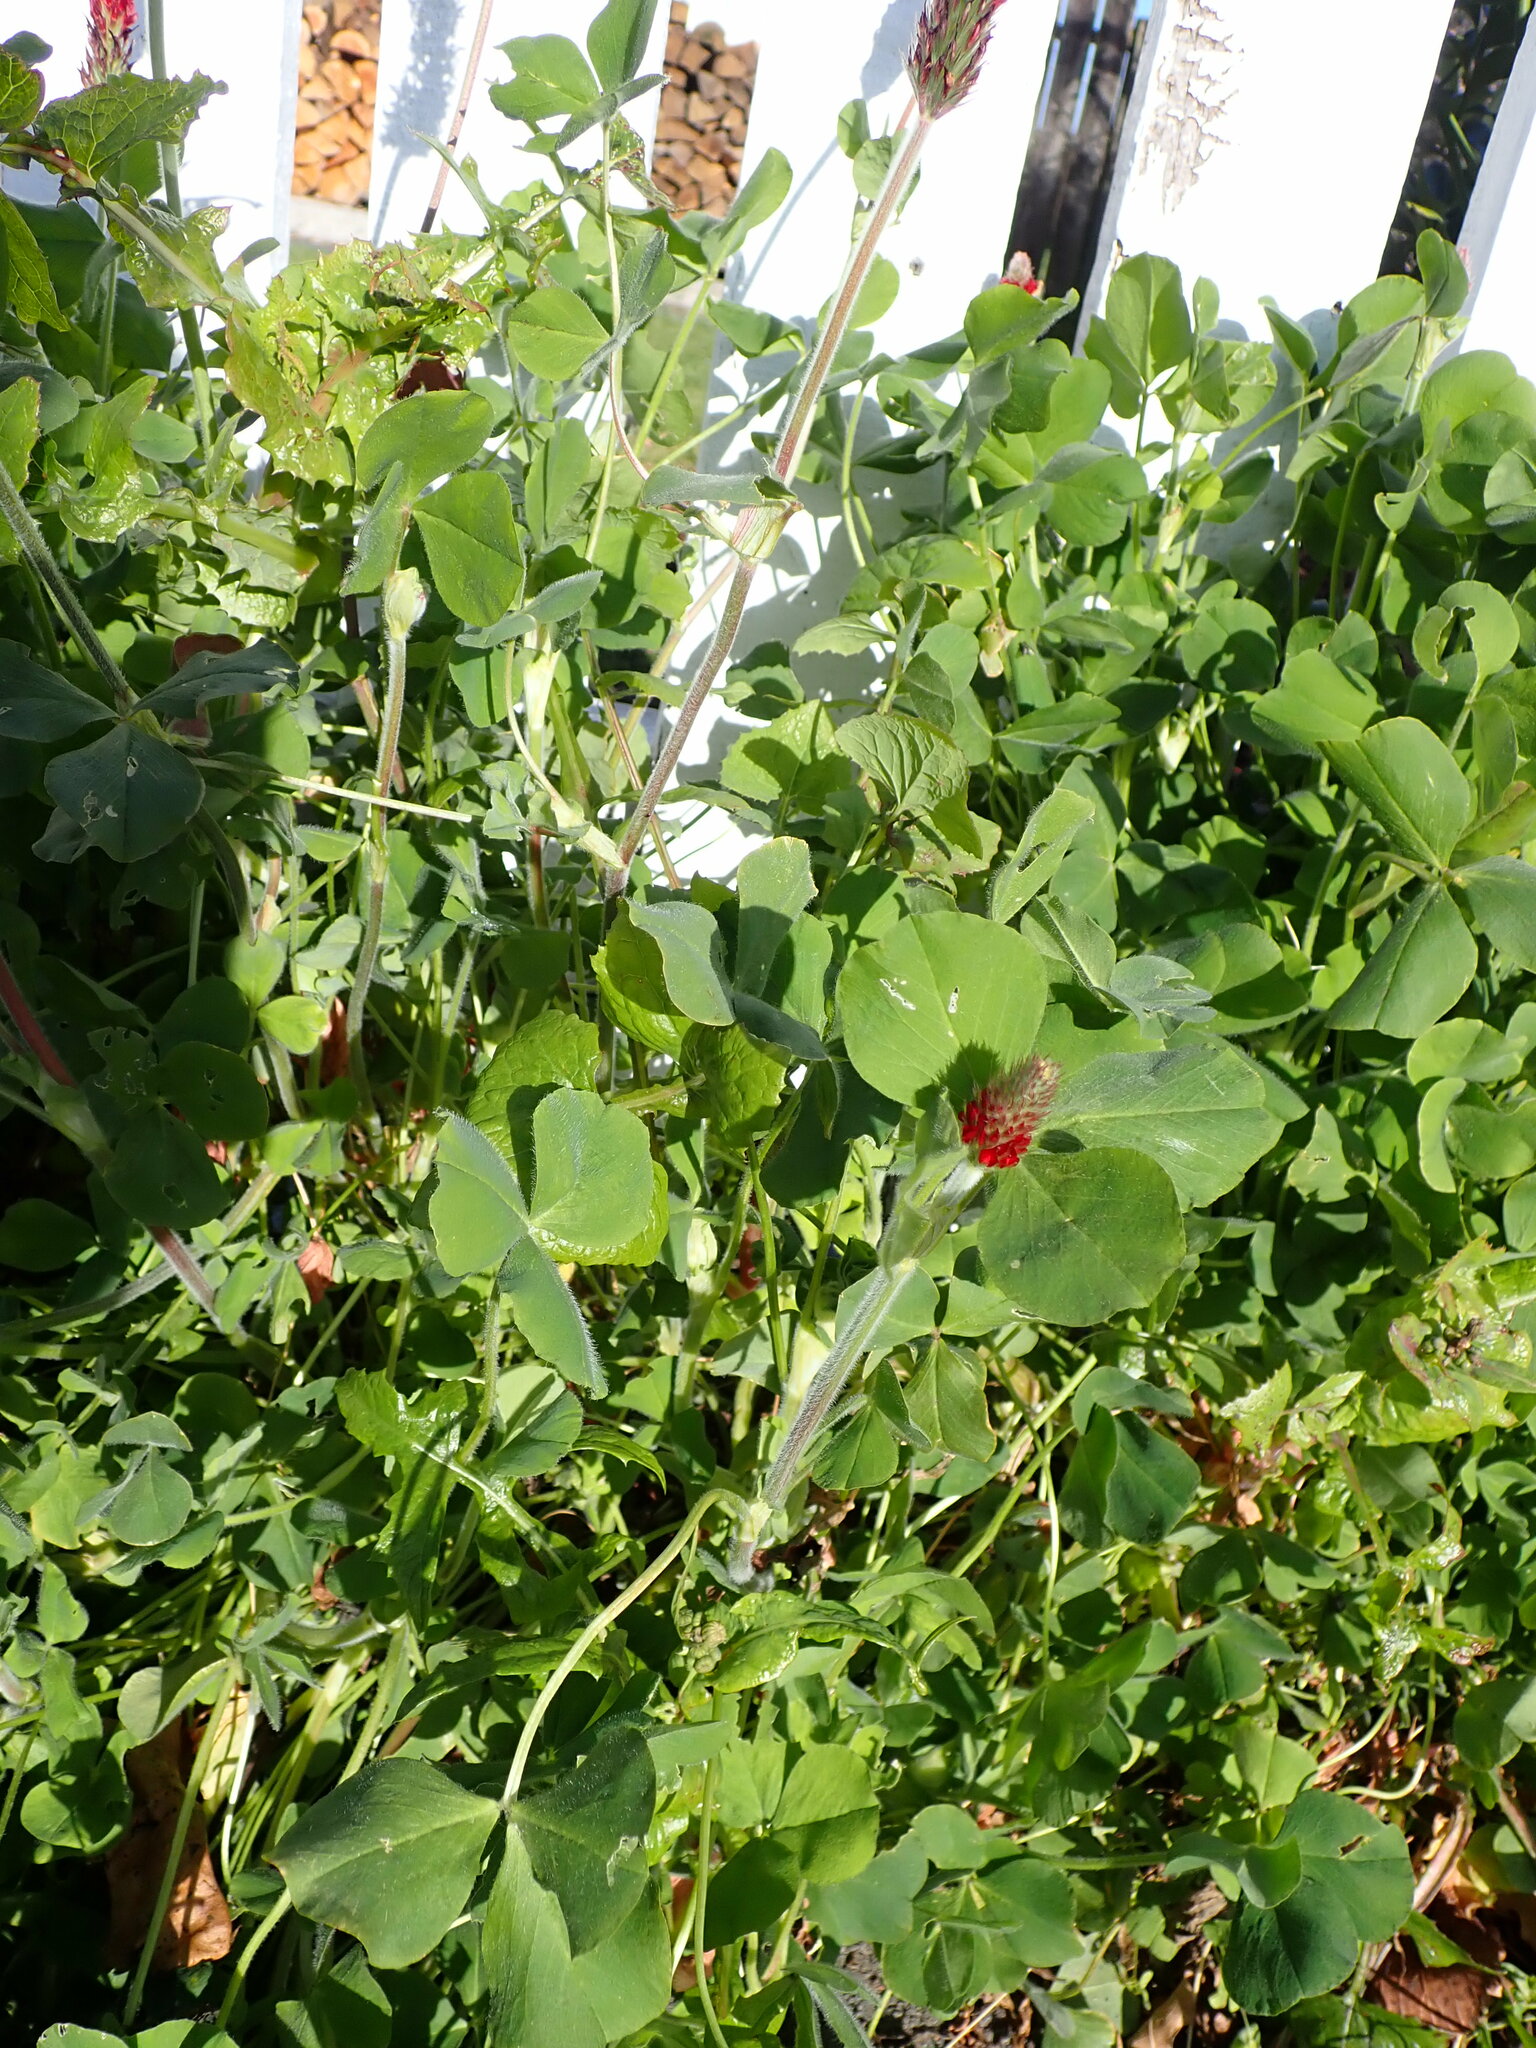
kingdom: Plantae
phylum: Tracheophyta
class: Magnoliopsida
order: Fabales
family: Fabaceae
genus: Trifolium
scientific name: Trifolium incarnatum
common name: Crimson clover
